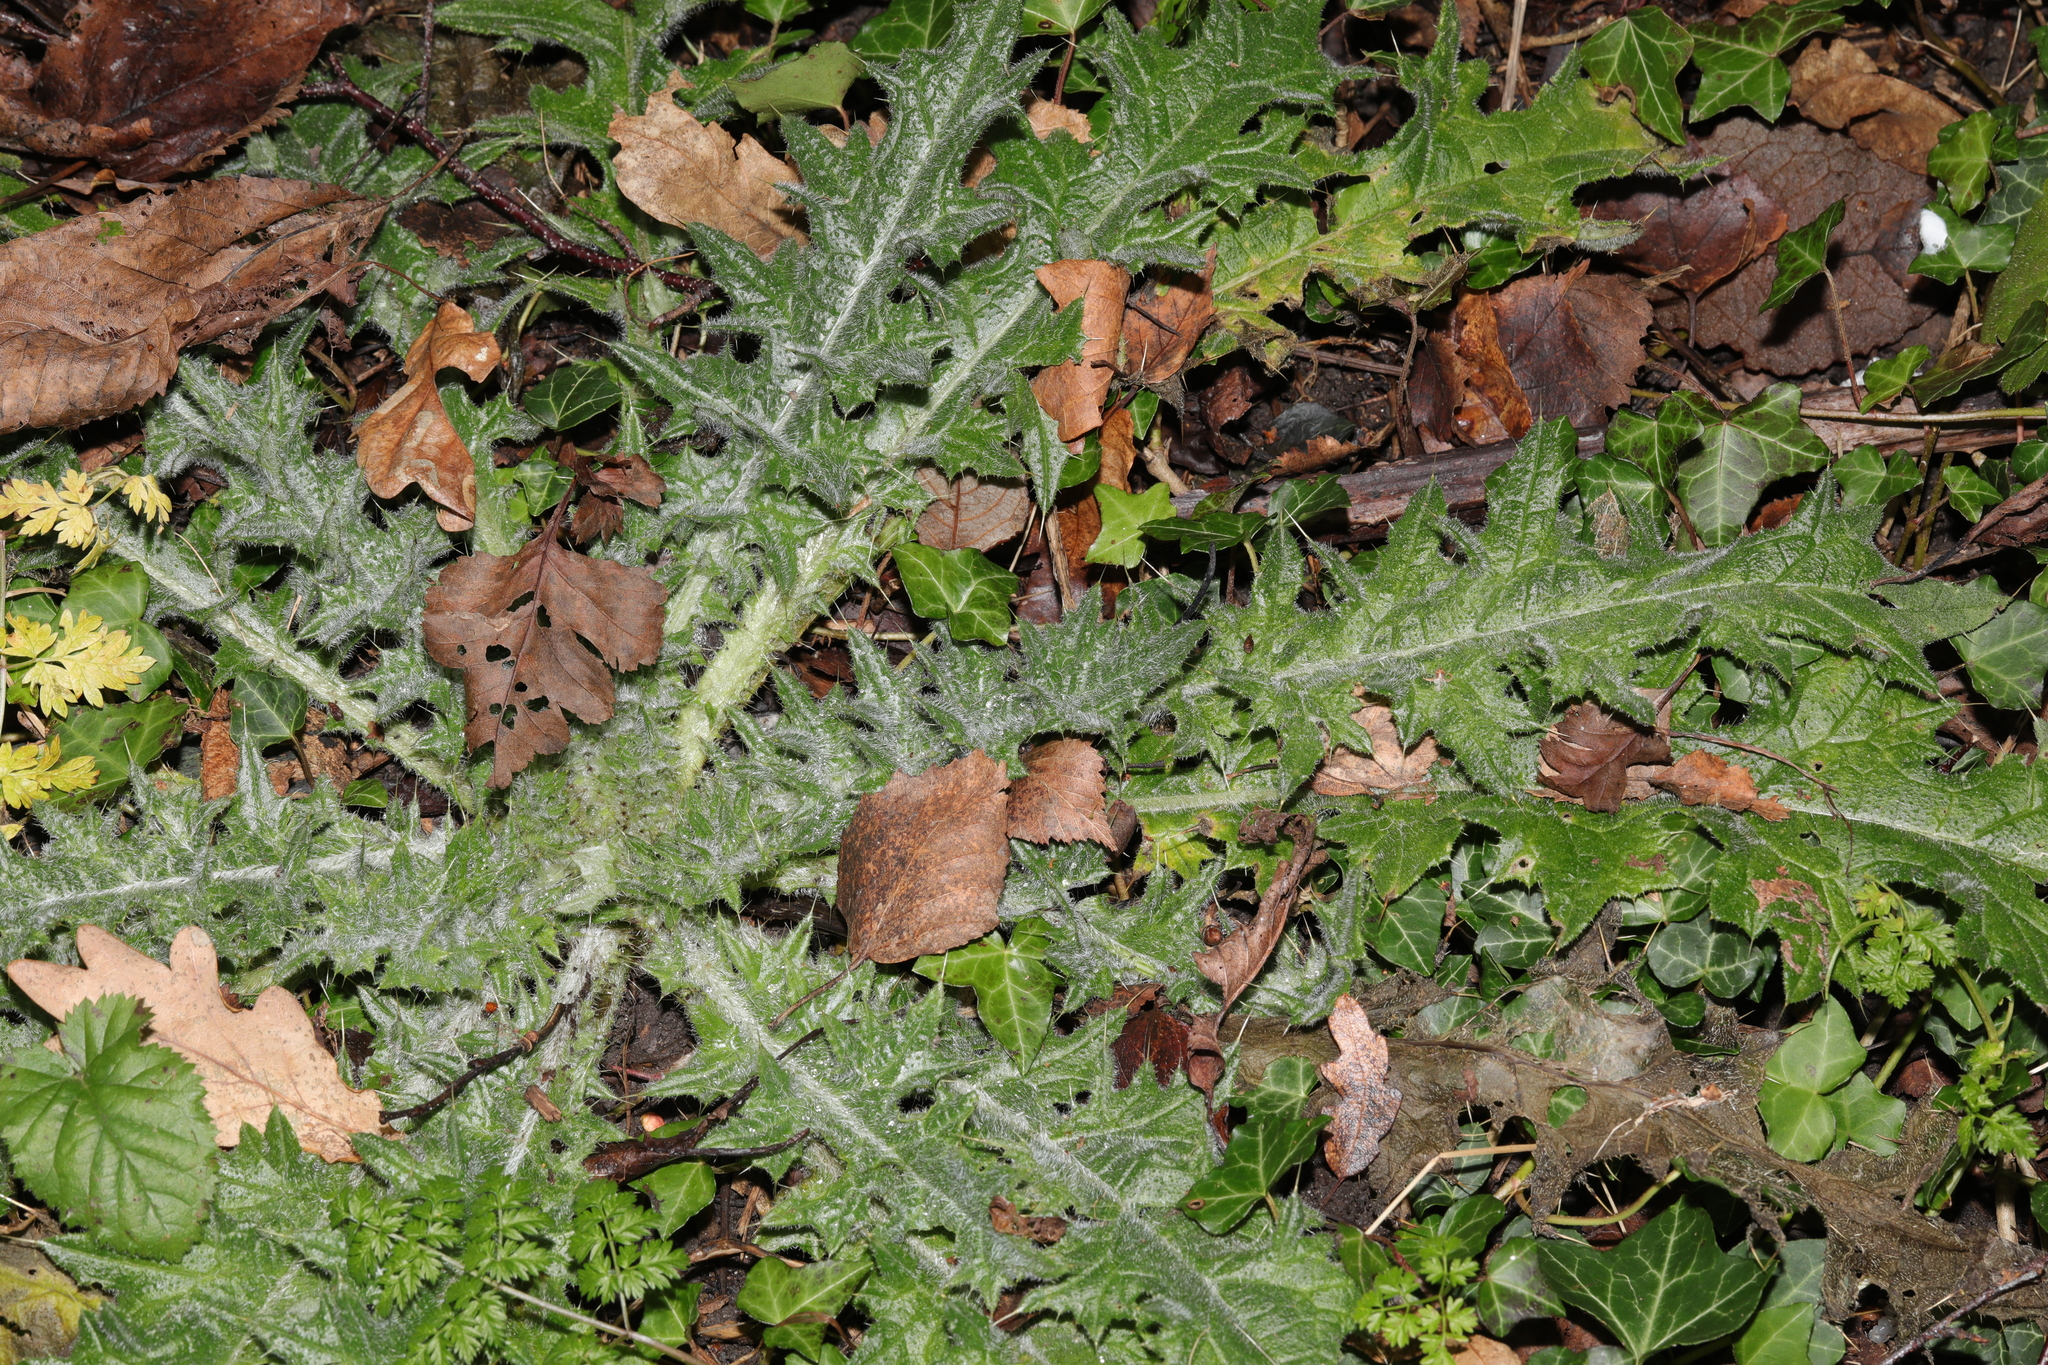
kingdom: Plantae
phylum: Tracheophyta
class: Magnoliopsida
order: Asterales
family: Asteraceae
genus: Cirsium
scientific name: Cirsium vulgare
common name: Bull thistle
